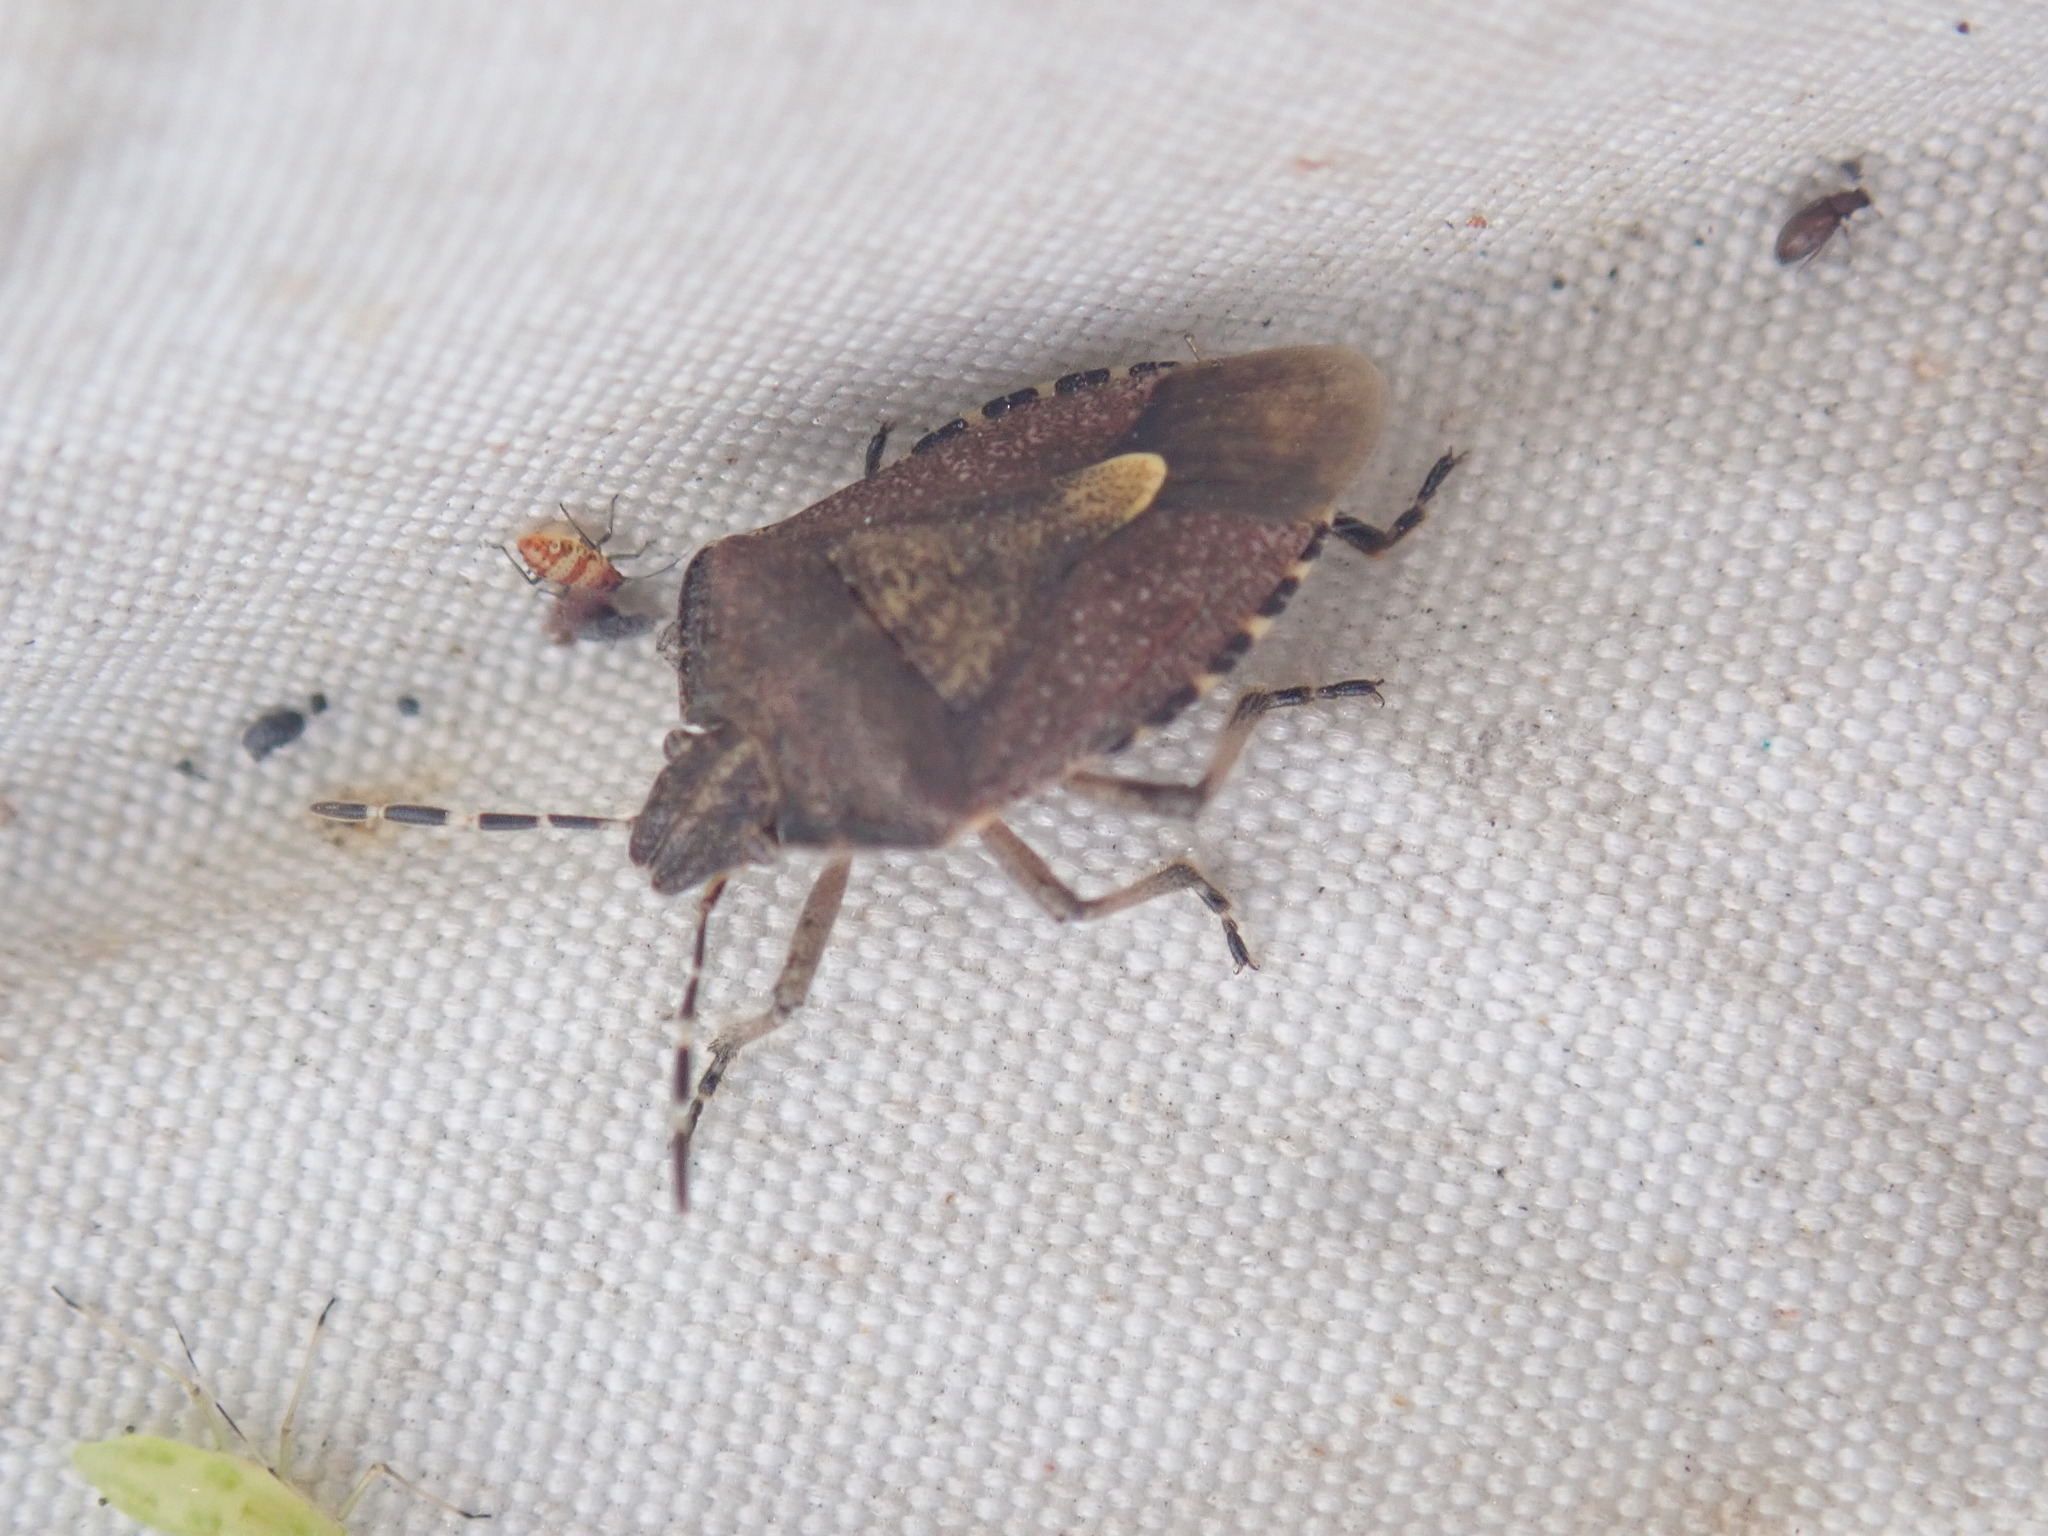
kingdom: Animalia
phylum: Arthropoda
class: Insecta
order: Hemiptera
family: Pentatomidae
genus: Dolycoris
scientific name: Dolycoris baccarum
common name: Sloe bug
